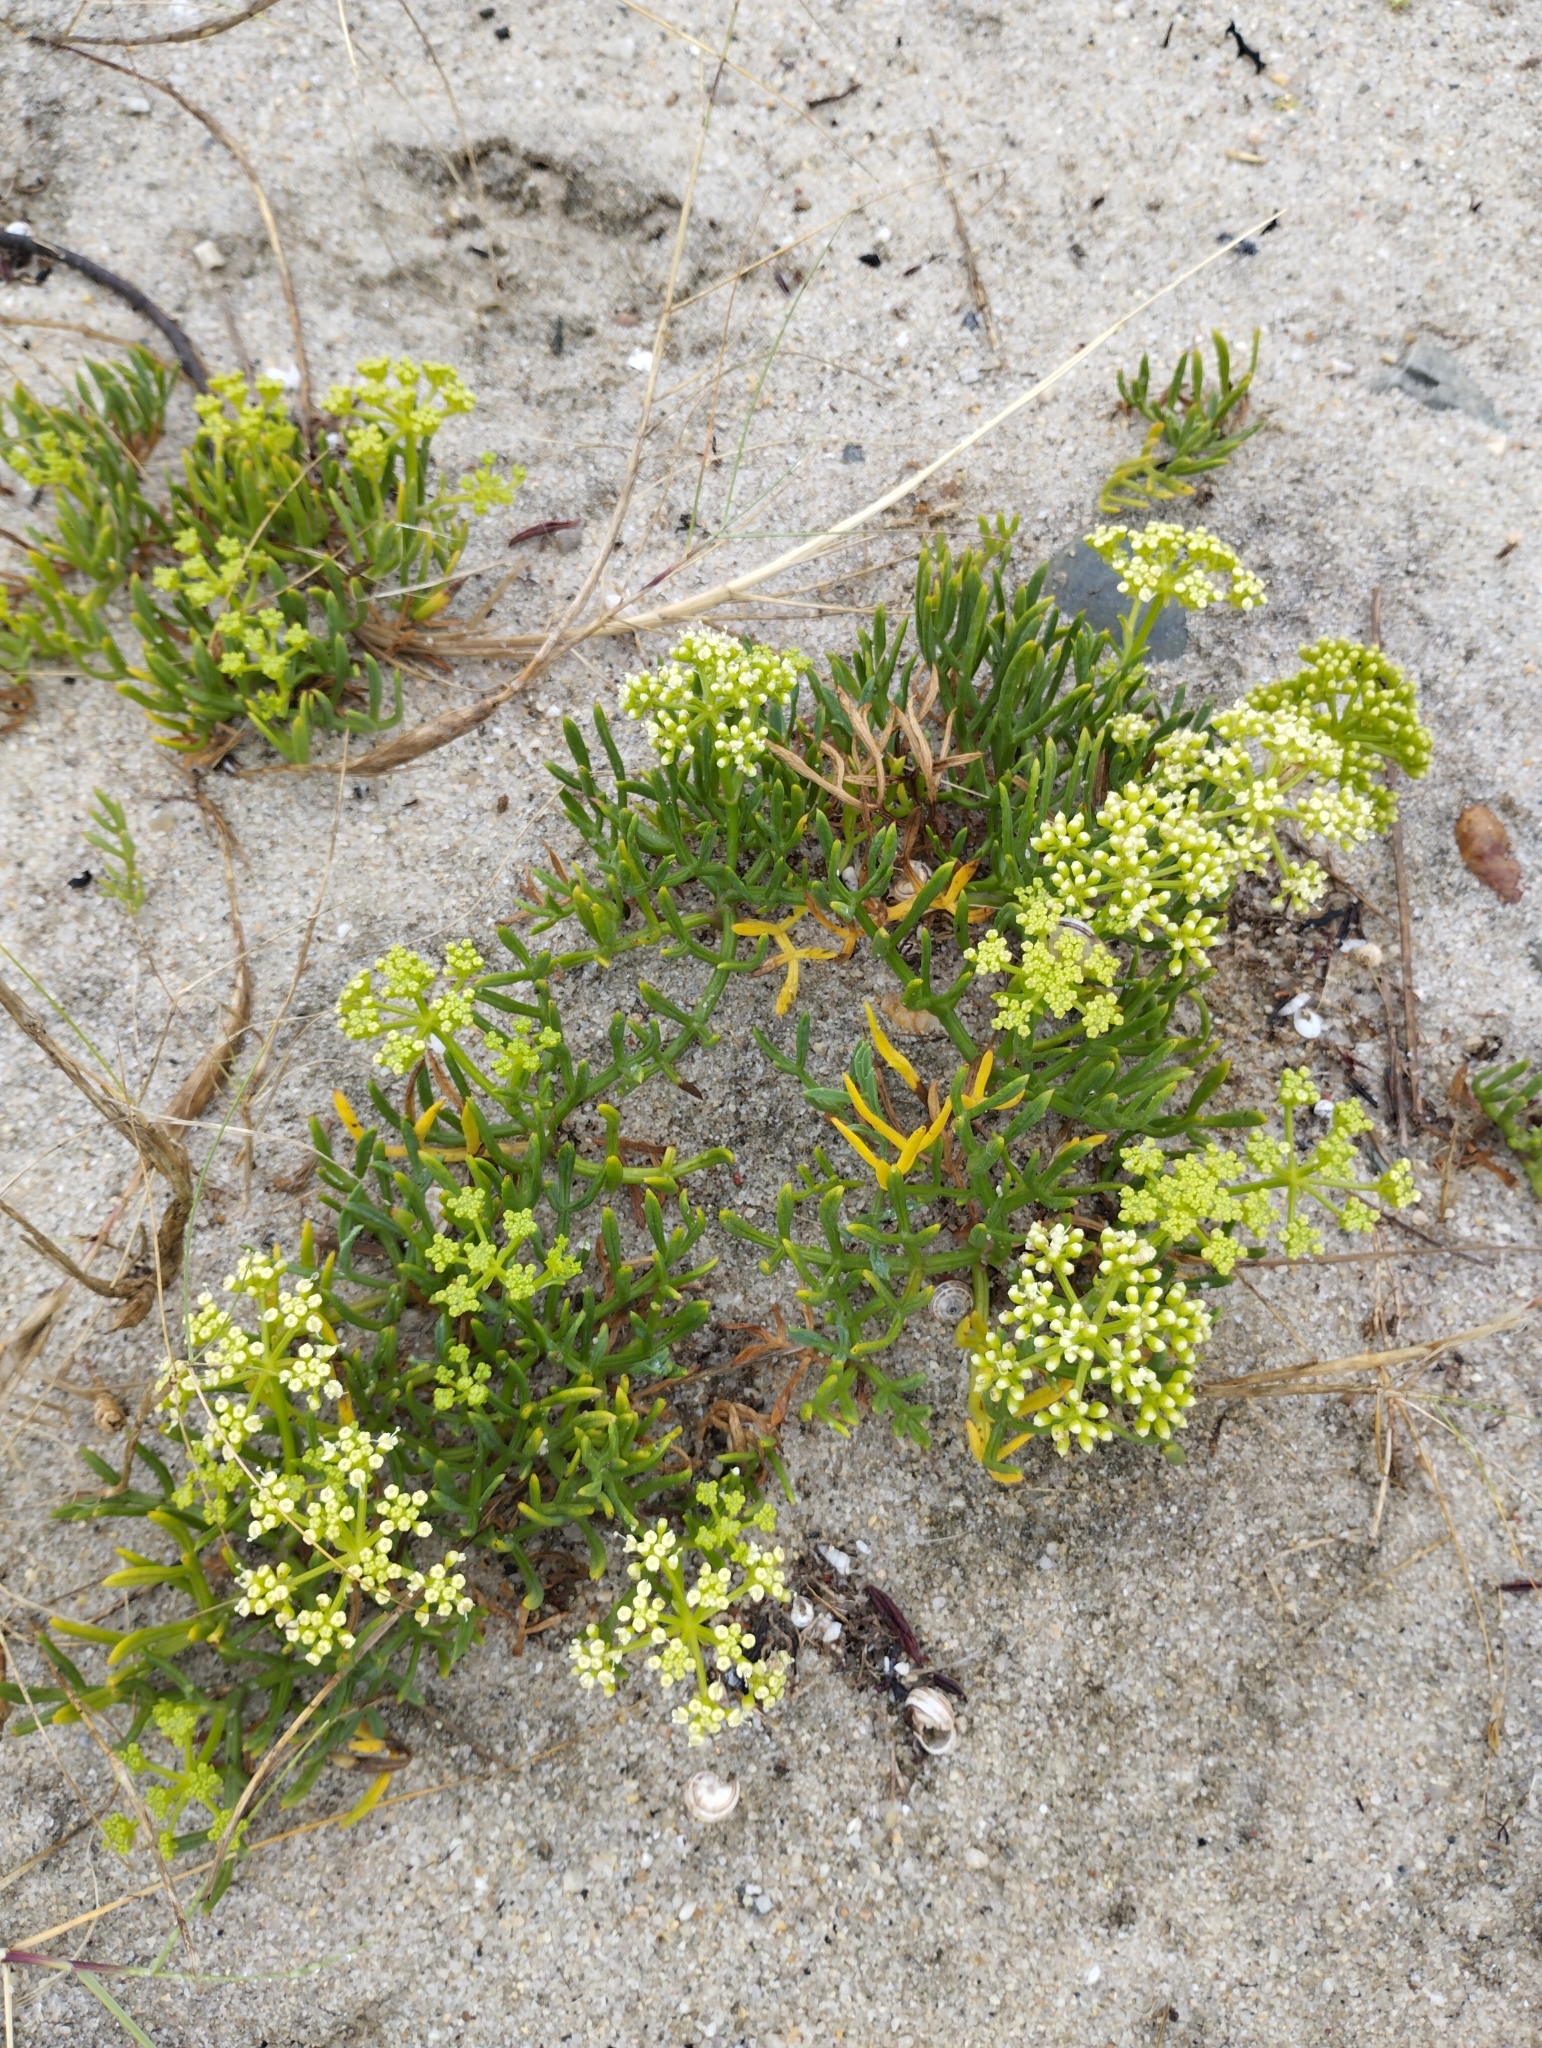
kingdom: Plantae
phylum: Tracheophyta
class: Magnoliopsida
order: Apiales
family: Apiaceae
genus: Crithmum
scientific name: Crithmum maritimum
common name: Rock samphire
